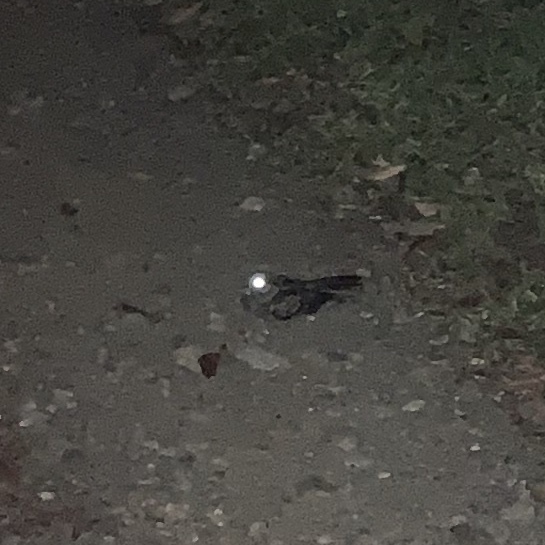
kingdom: Animalia
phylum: Chordata
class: Aves
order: Caprimulgiformes
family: Caprimulgidae
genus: Nyctidromus
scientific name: Nyctidromus albicollis
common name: Pauraque
